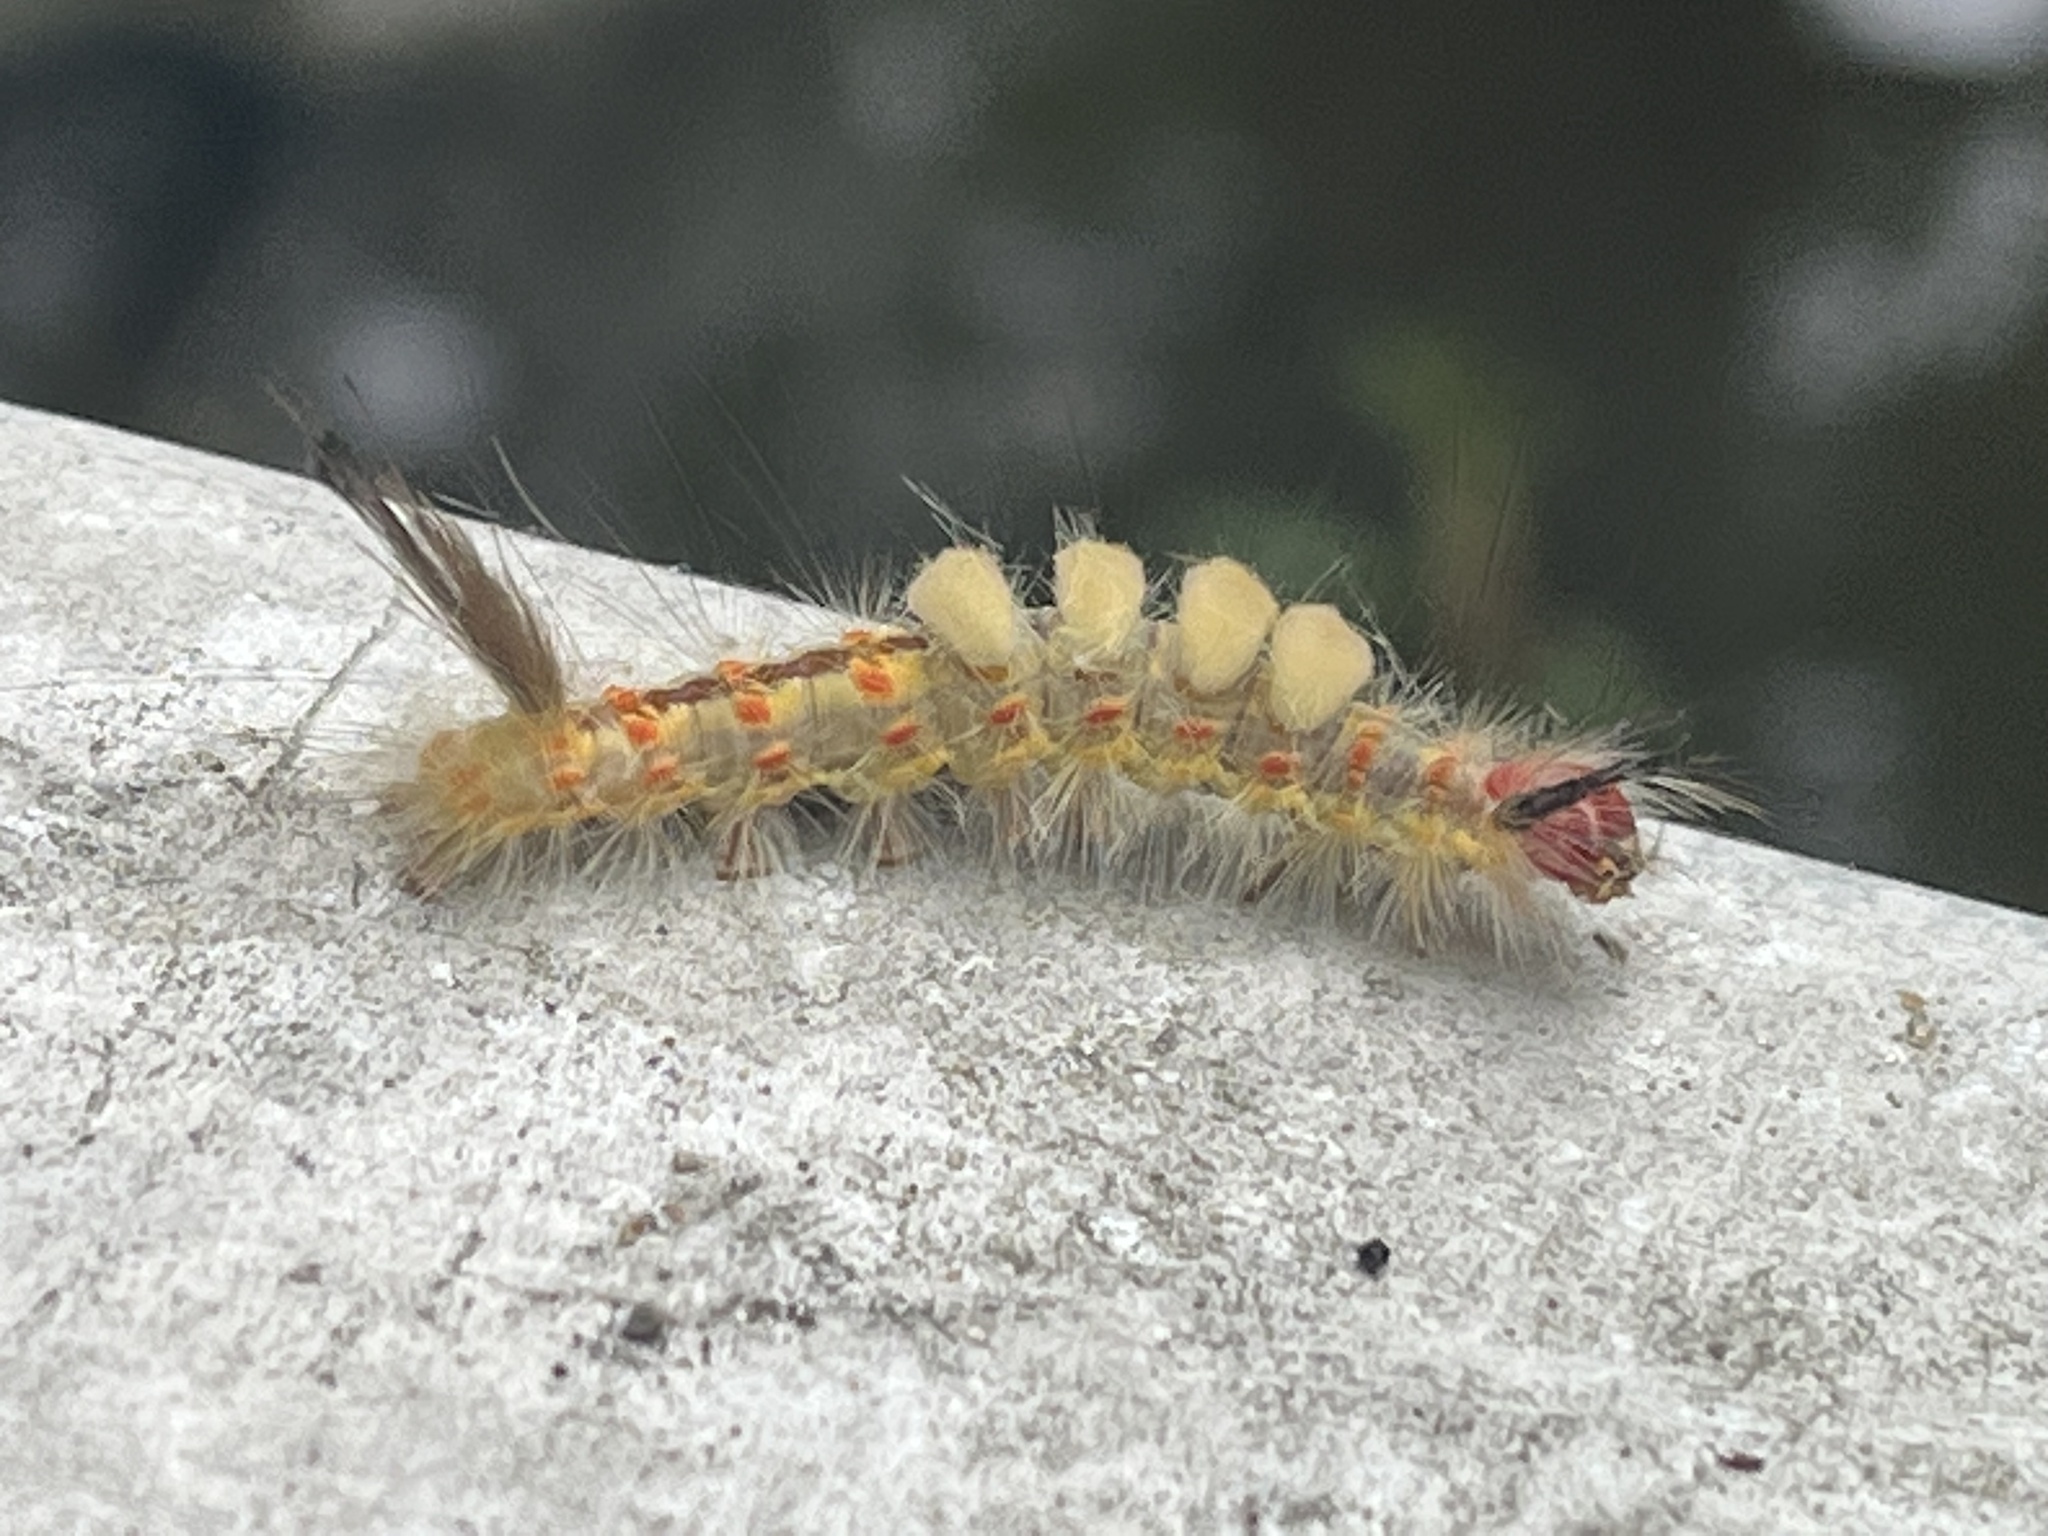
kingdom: Animalia
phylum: Arthropoda
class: Insecta
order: Lepidoptera
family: Erebidae
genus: Orgyia
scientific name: Orgyia detrita
